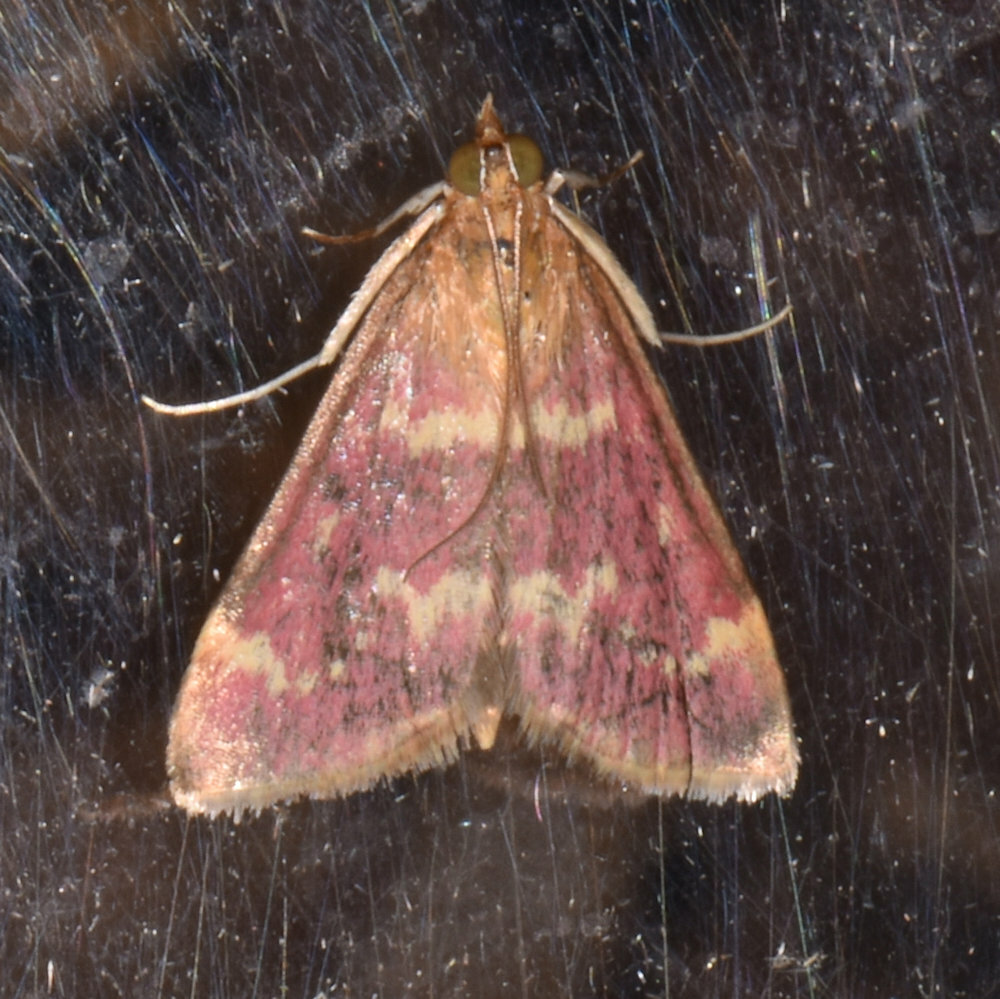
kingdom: Animalia
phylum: Arthropoda
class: Insecta
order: Lepidoptera
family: Crambidae
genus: Pyrausta
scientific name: Pyrausta signatalis
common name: Raspberry pyrausta moth
